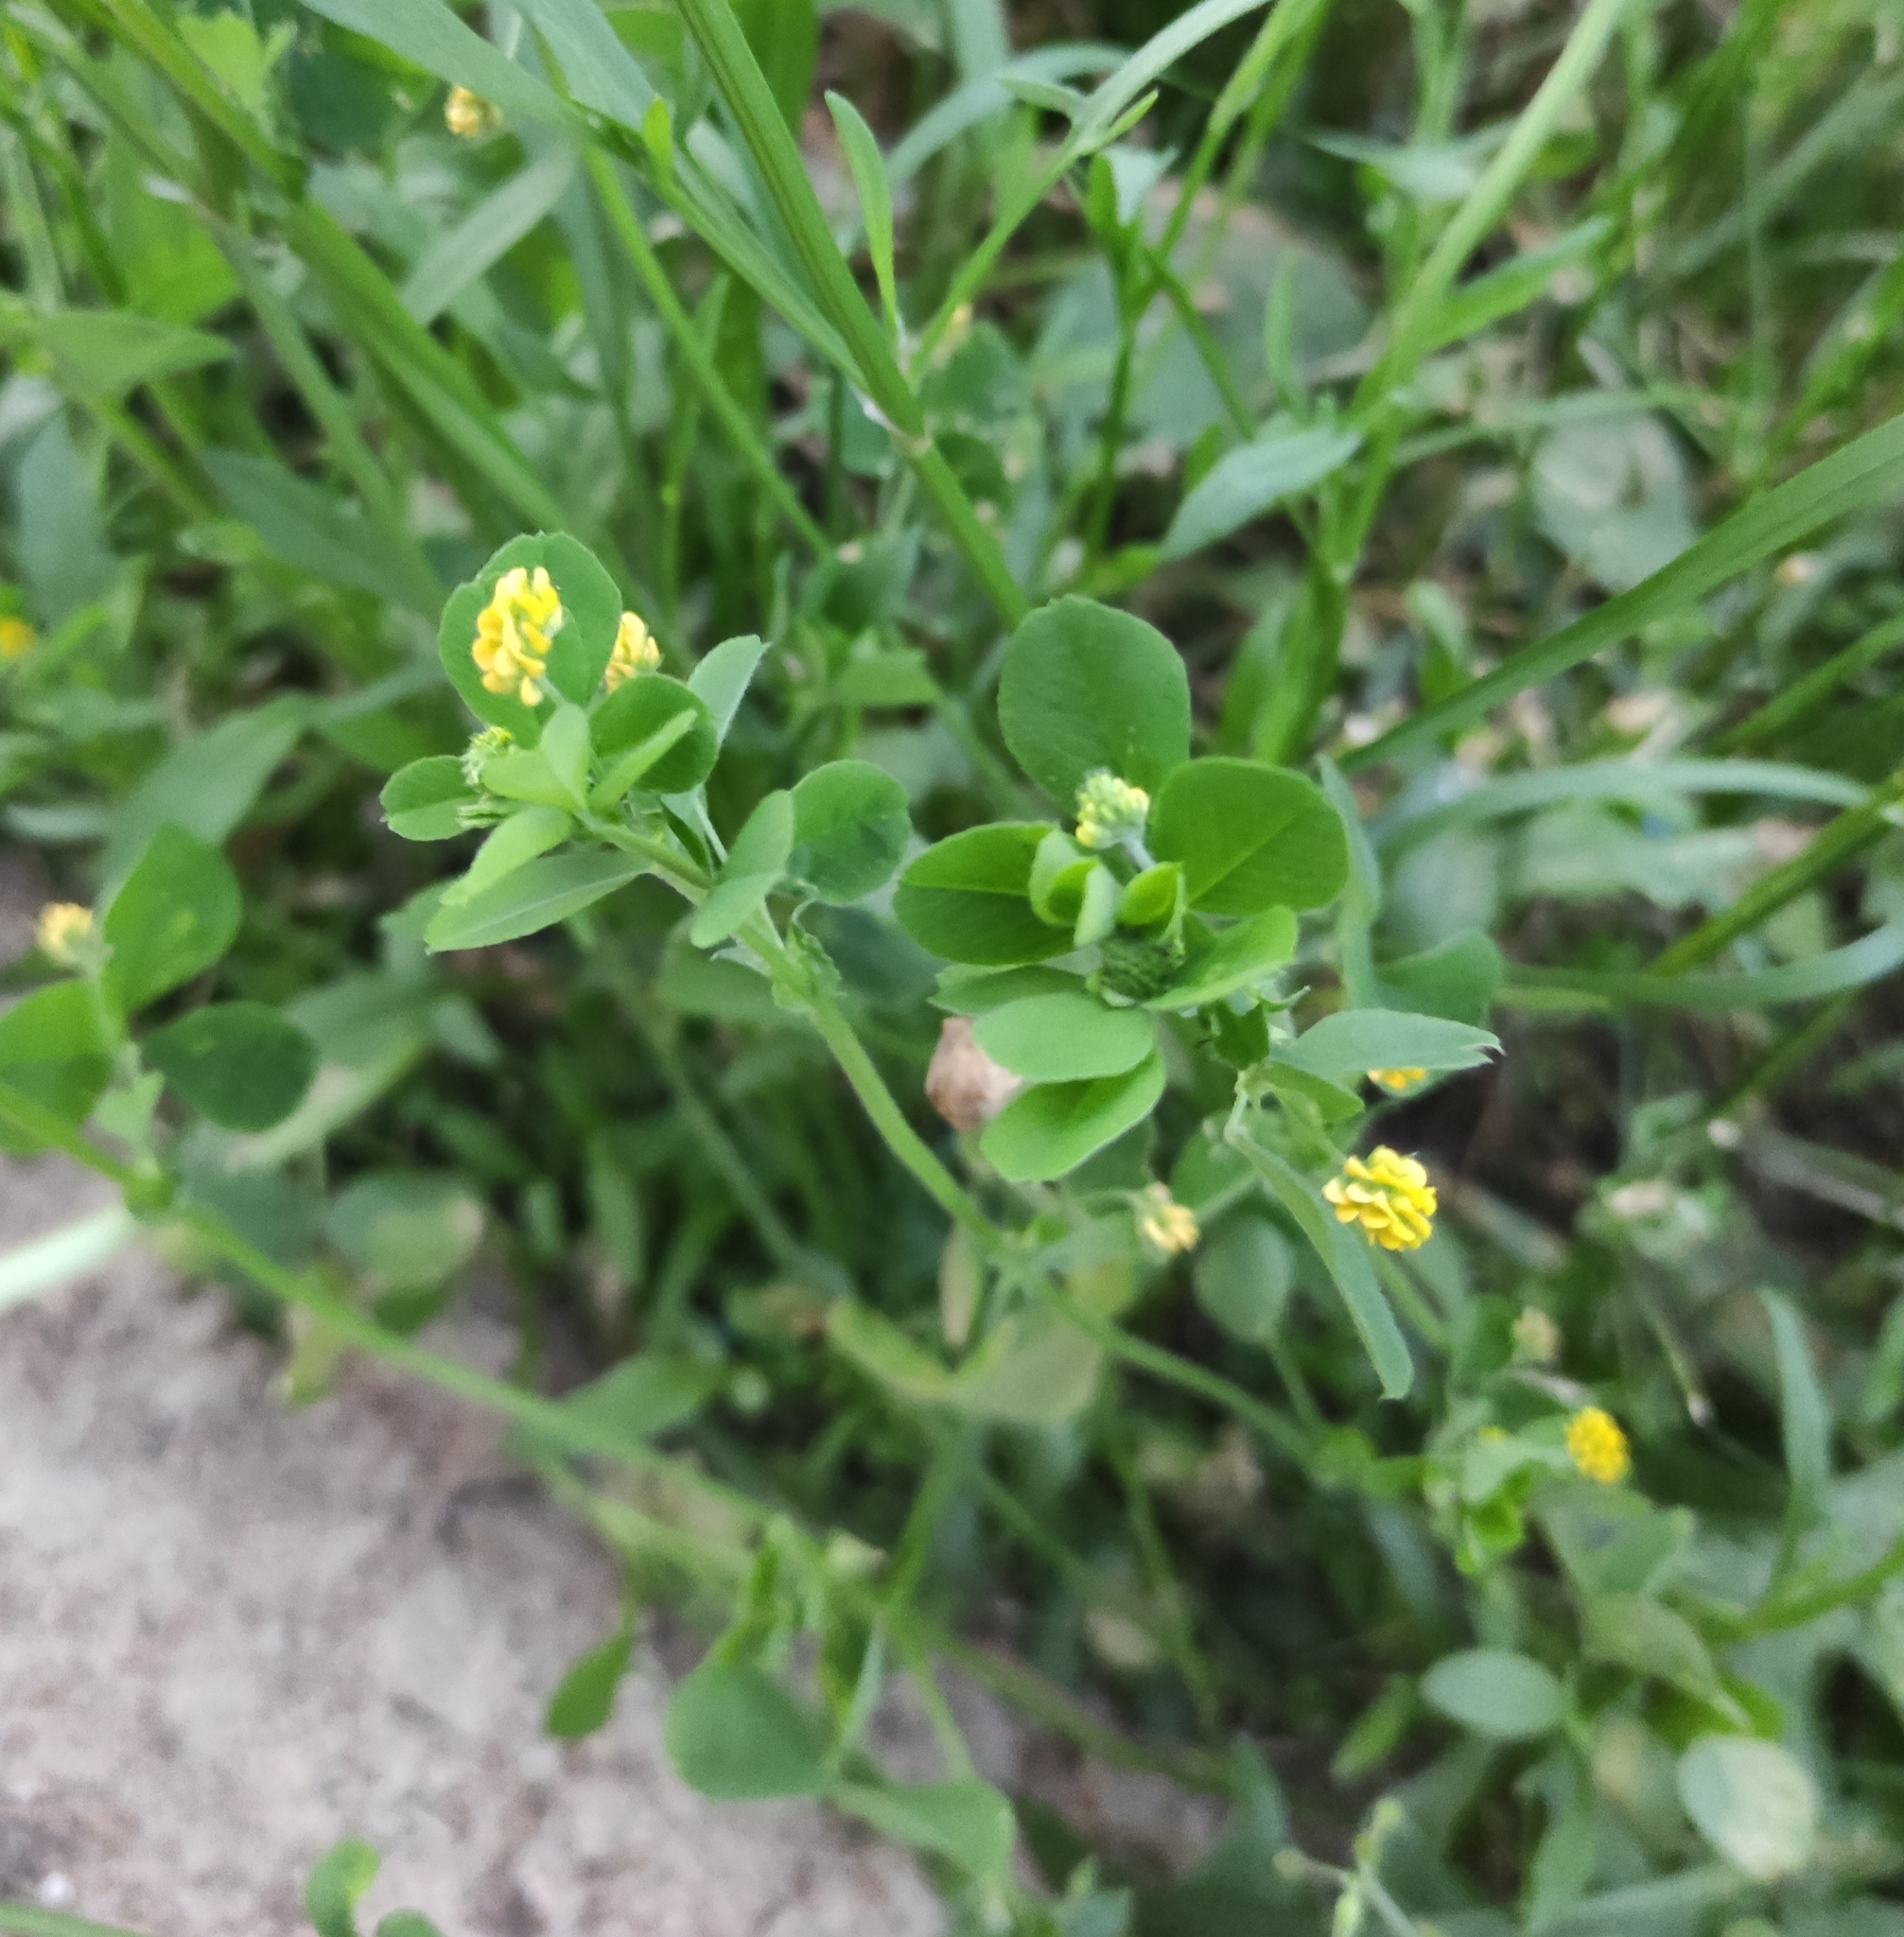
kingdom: Plantae
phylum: Tracheophyta
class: Magnoliopsida
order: Fabales
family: Fabaceae
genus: Medicago
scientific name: Medicago lupulina
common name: Black medick
